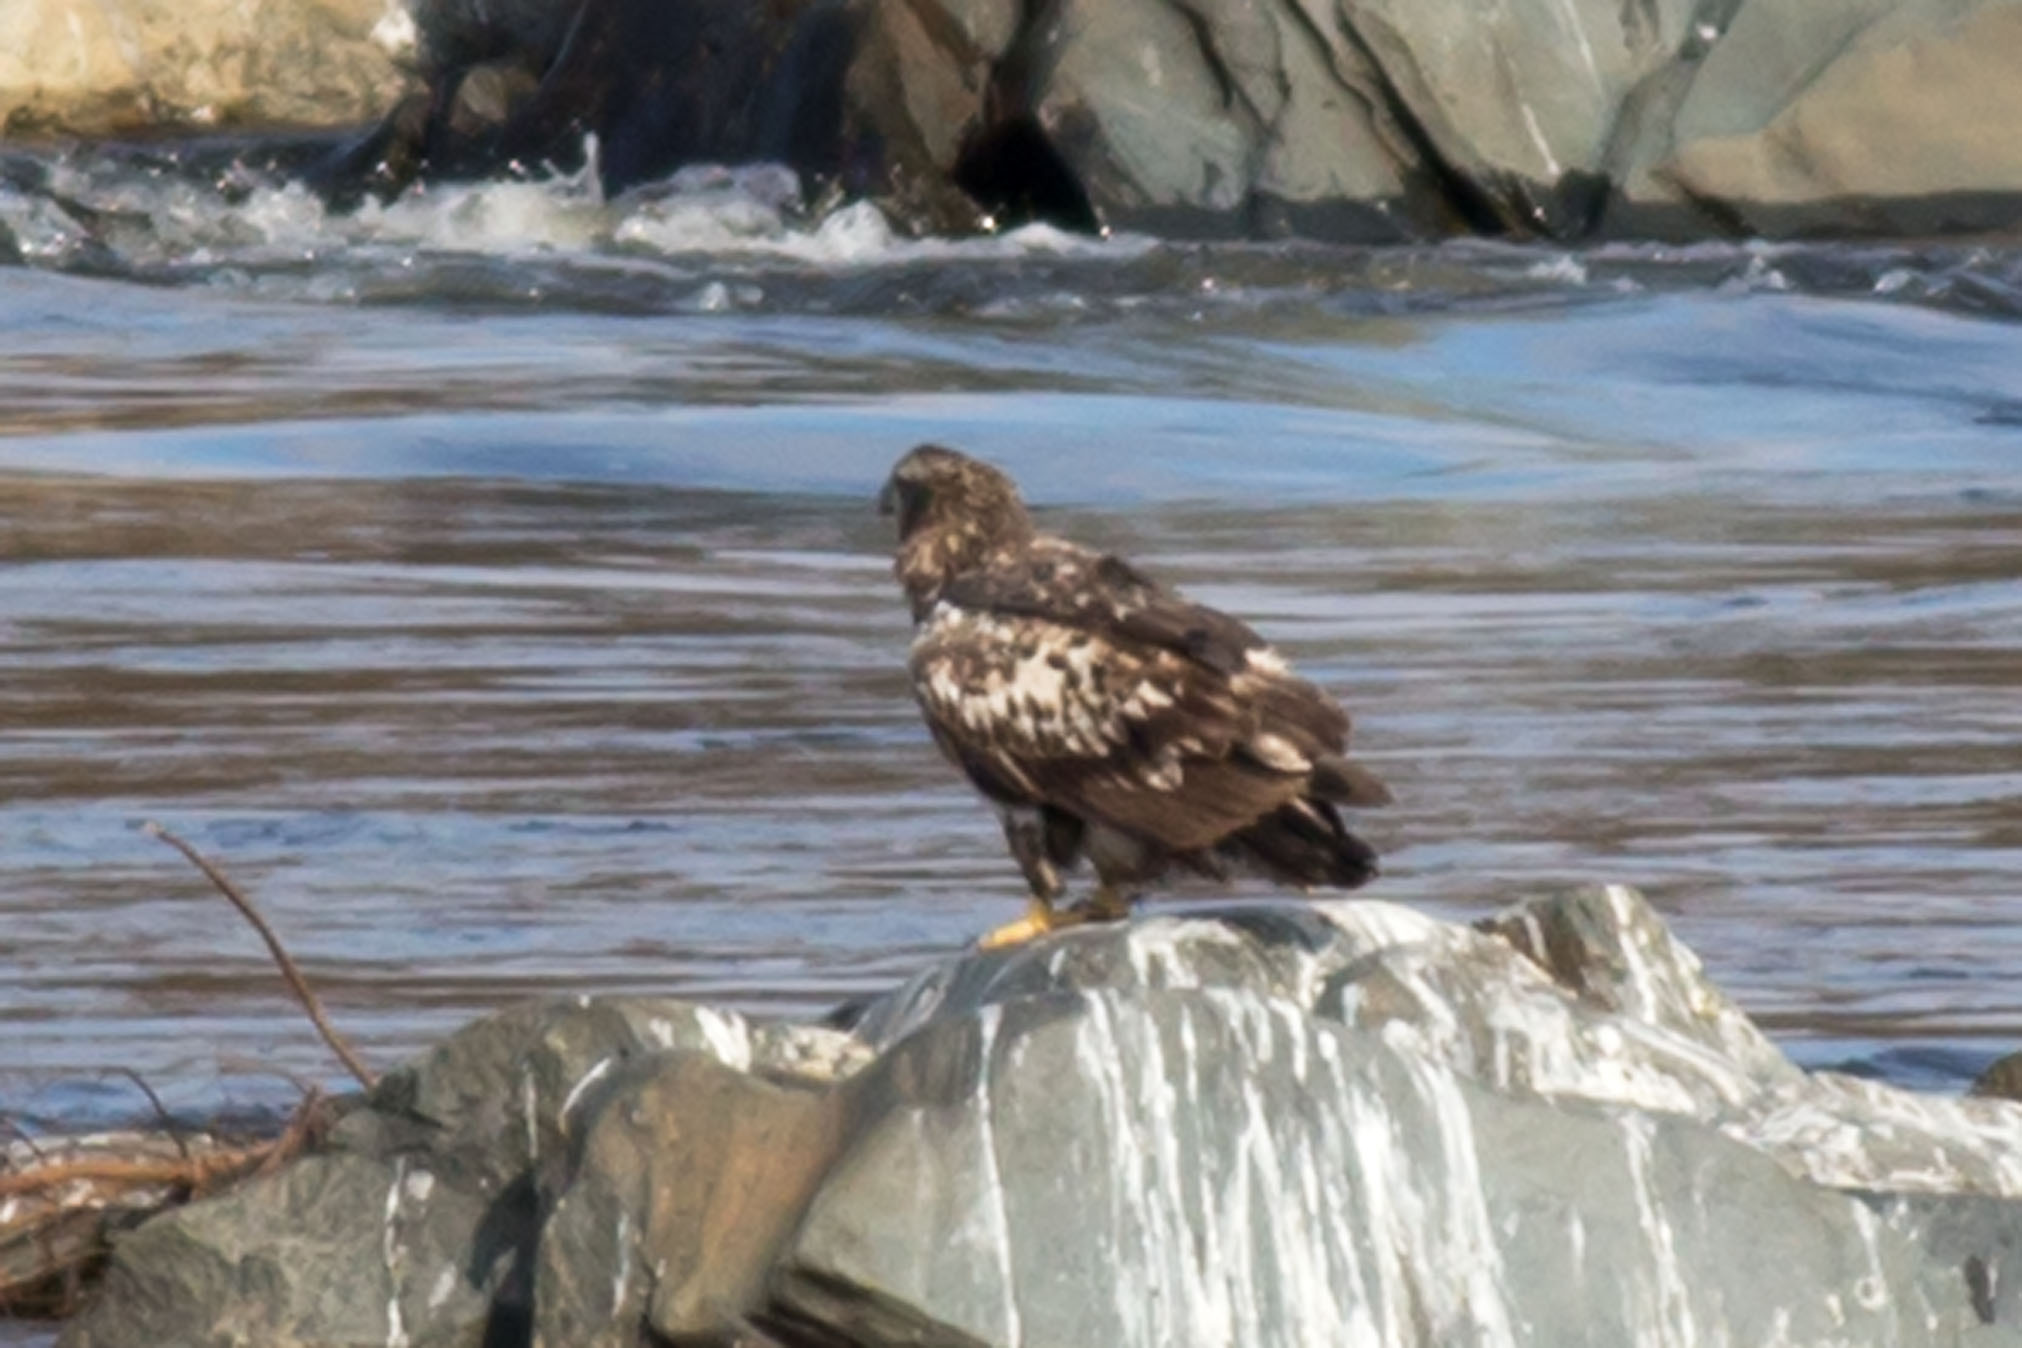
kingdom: Animalia
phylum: Chordata
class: Aves
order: Accipitriformes
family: Accipitridae
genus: Haliaeetus
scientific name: Haliaeetus leucocephalus
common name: Bald eagle
